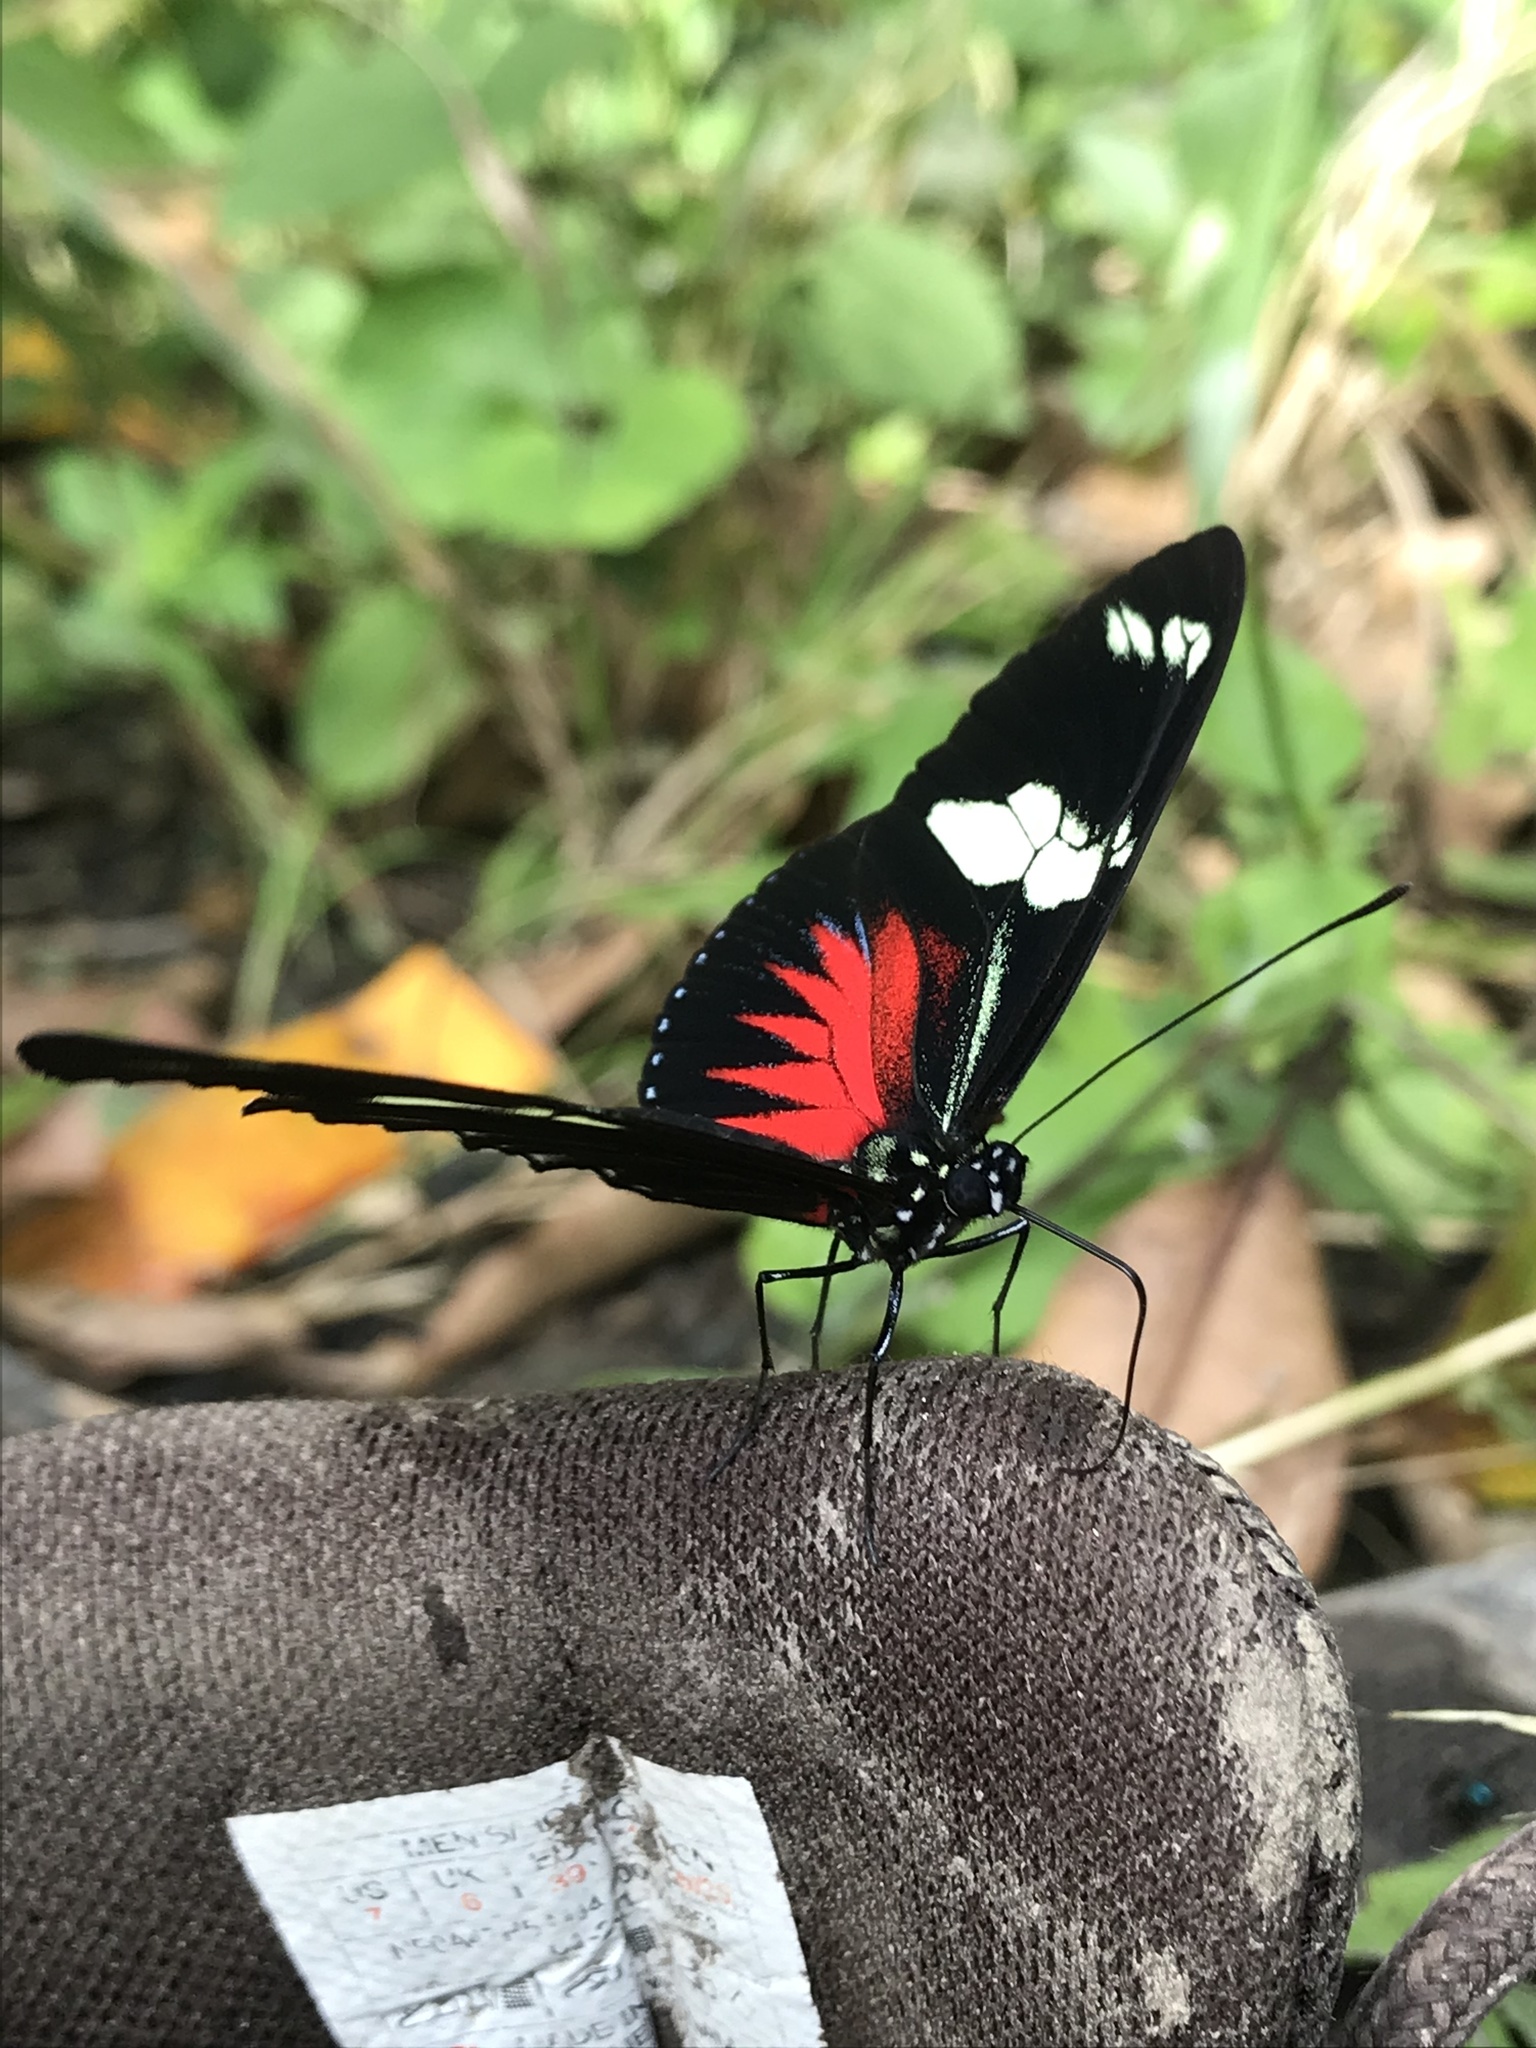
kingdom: Animalia
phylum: Arthropoda
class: Insecta
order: Lepidoptera
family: Nymphalidae
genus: Heliconius
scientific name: Heliconius doris
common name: Doris longwing
